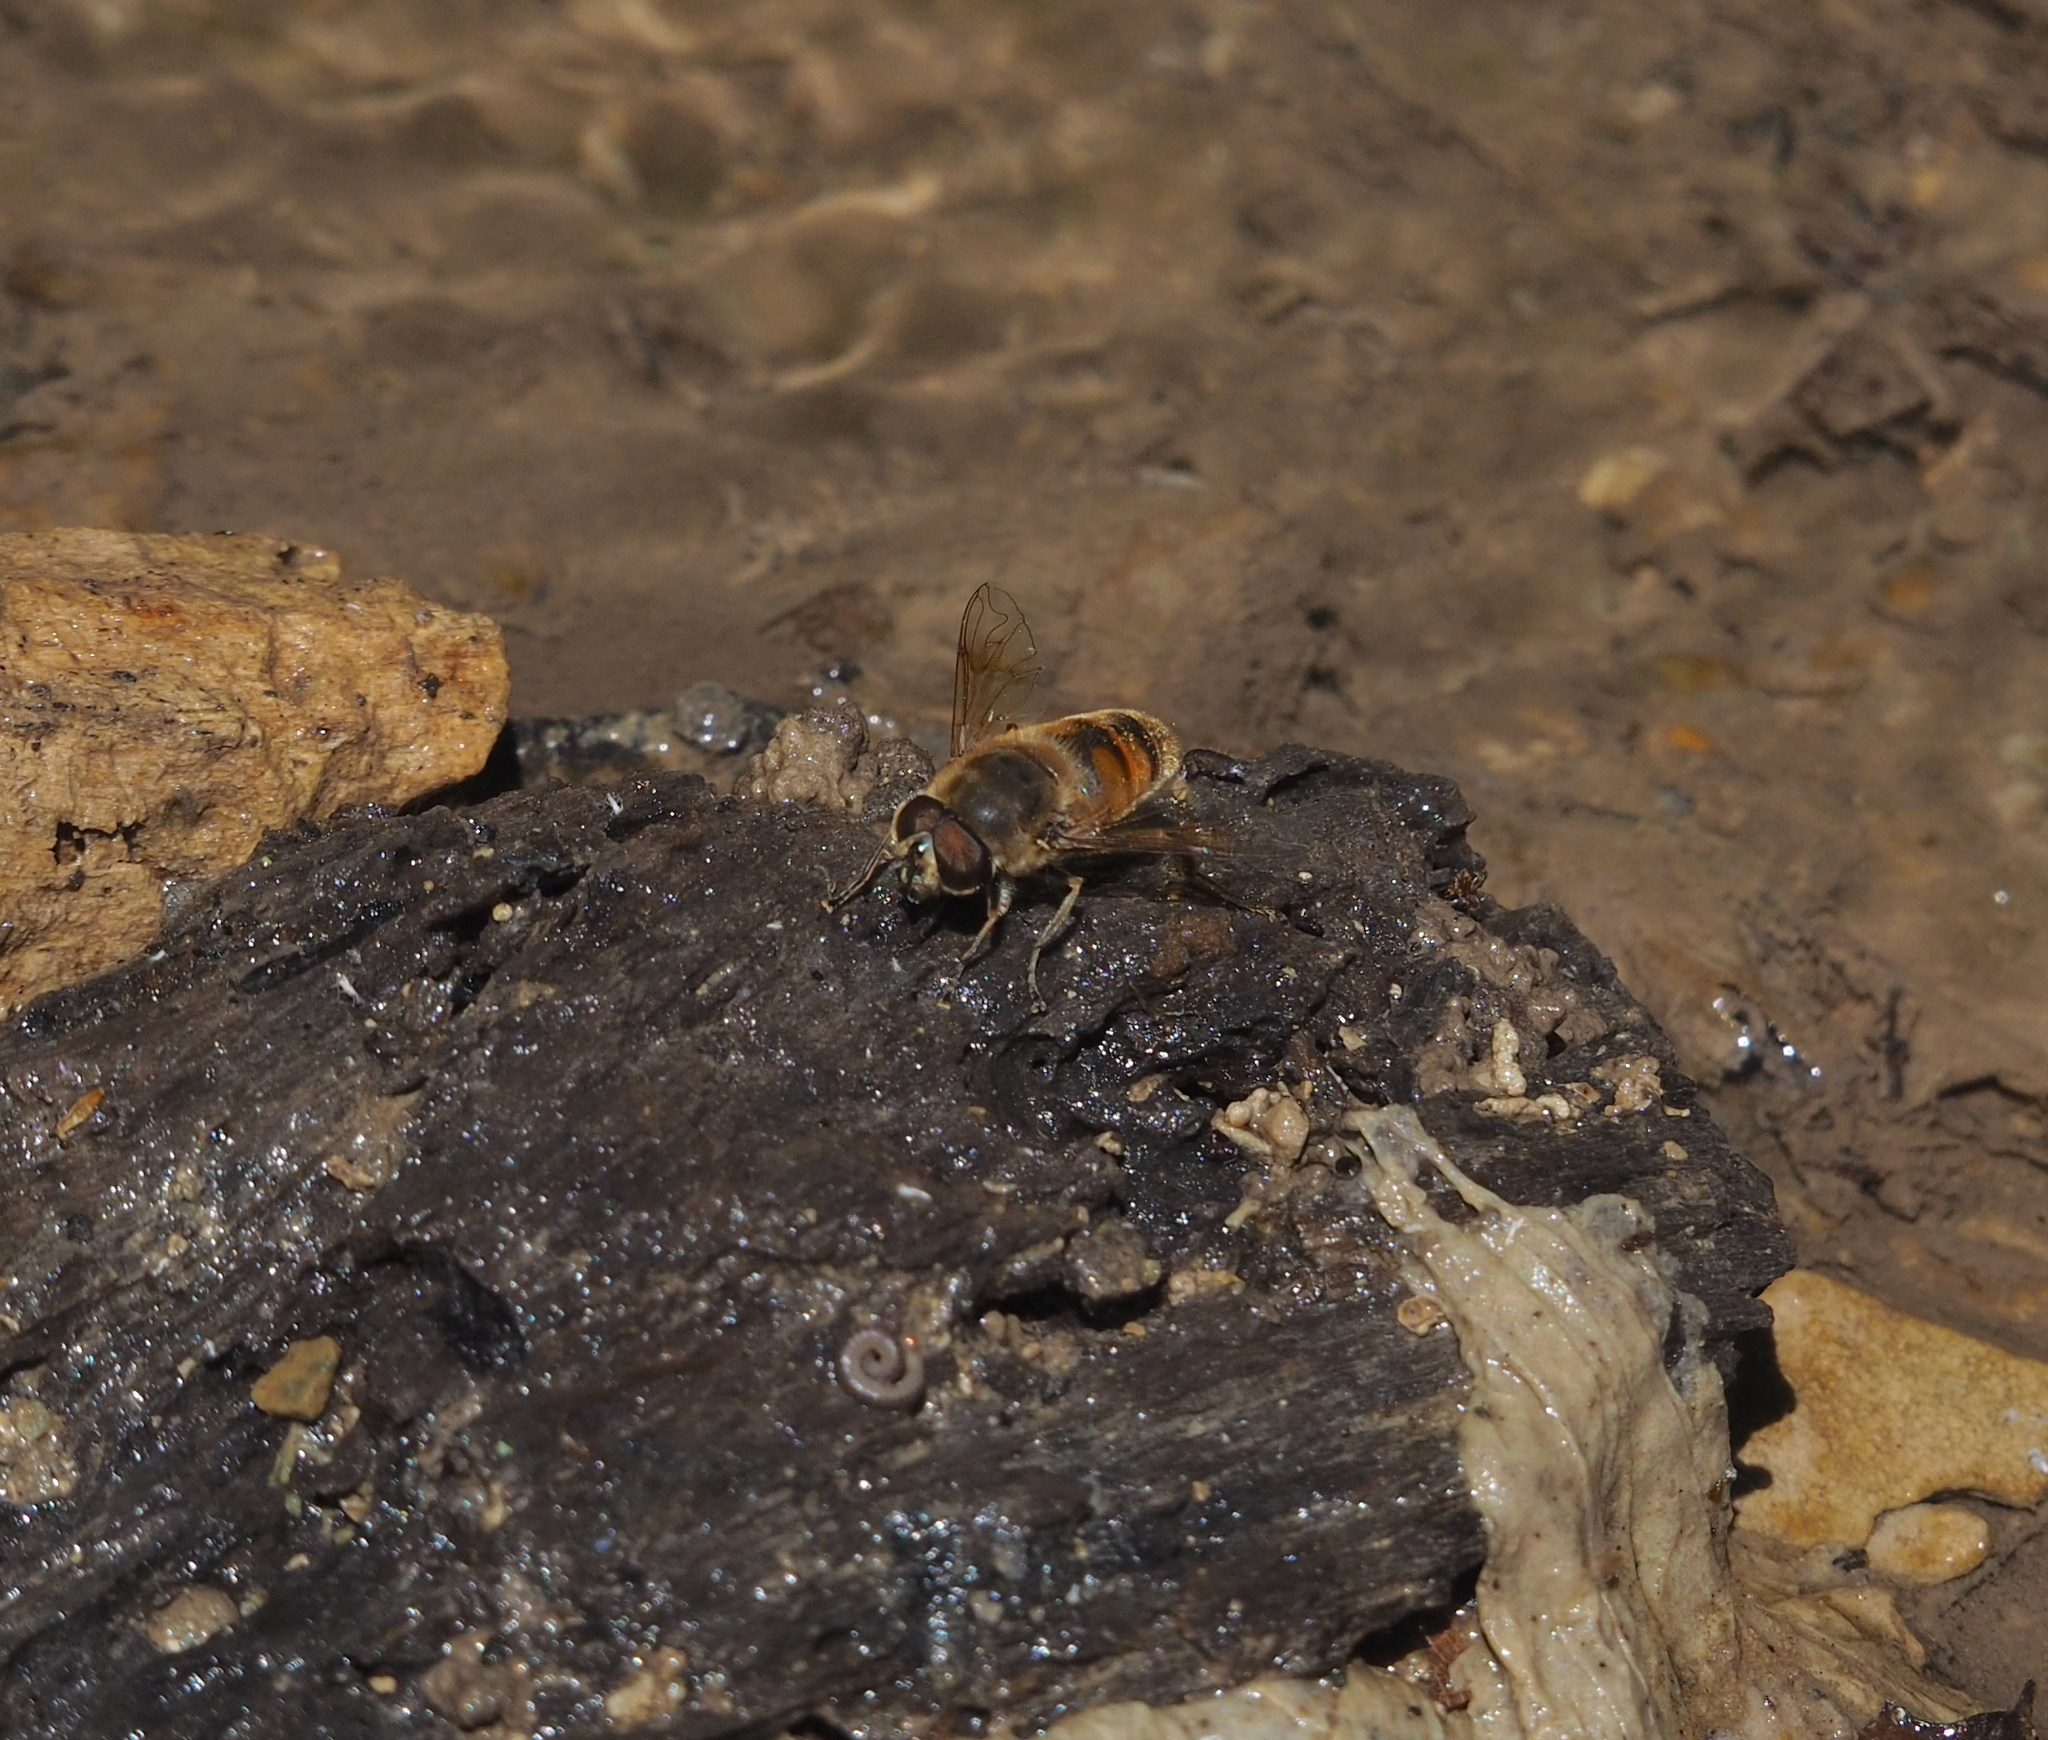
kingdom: Animalia
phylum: Arthropoda
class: Insecta
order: Diptera
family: Syrphidae
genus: Eristalis
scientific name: Eristalis tenax
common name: Drone fly
